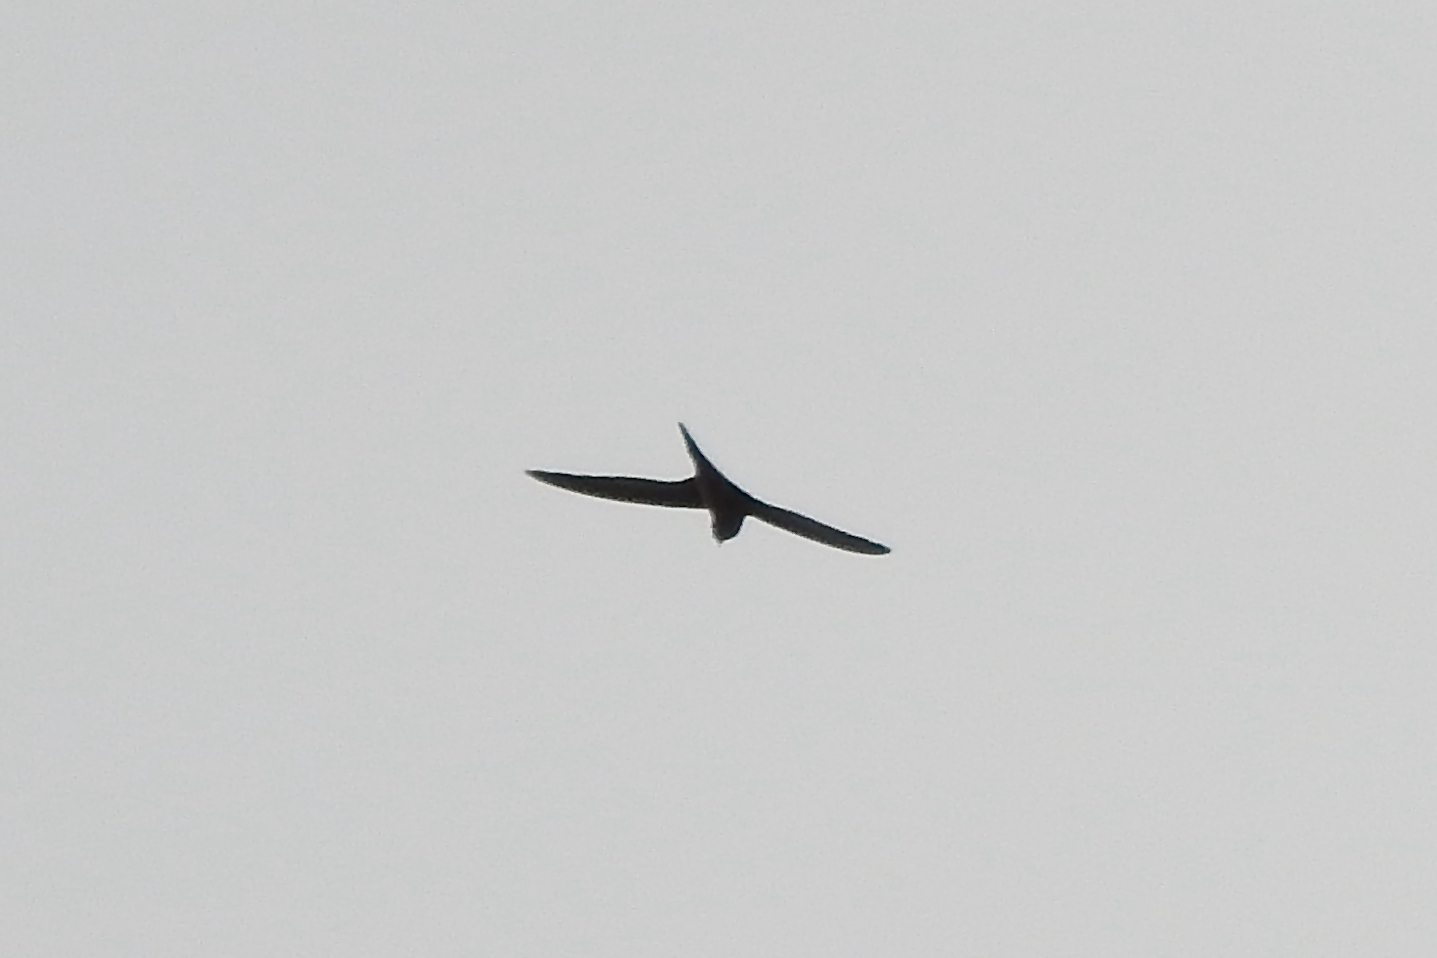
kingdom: Animalia
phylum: Chordata
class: Aves
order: Apodiformes
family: Apodidae
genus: Cypsiurus
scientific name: Cypsiurus balasiensis
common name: Asian palm swift
